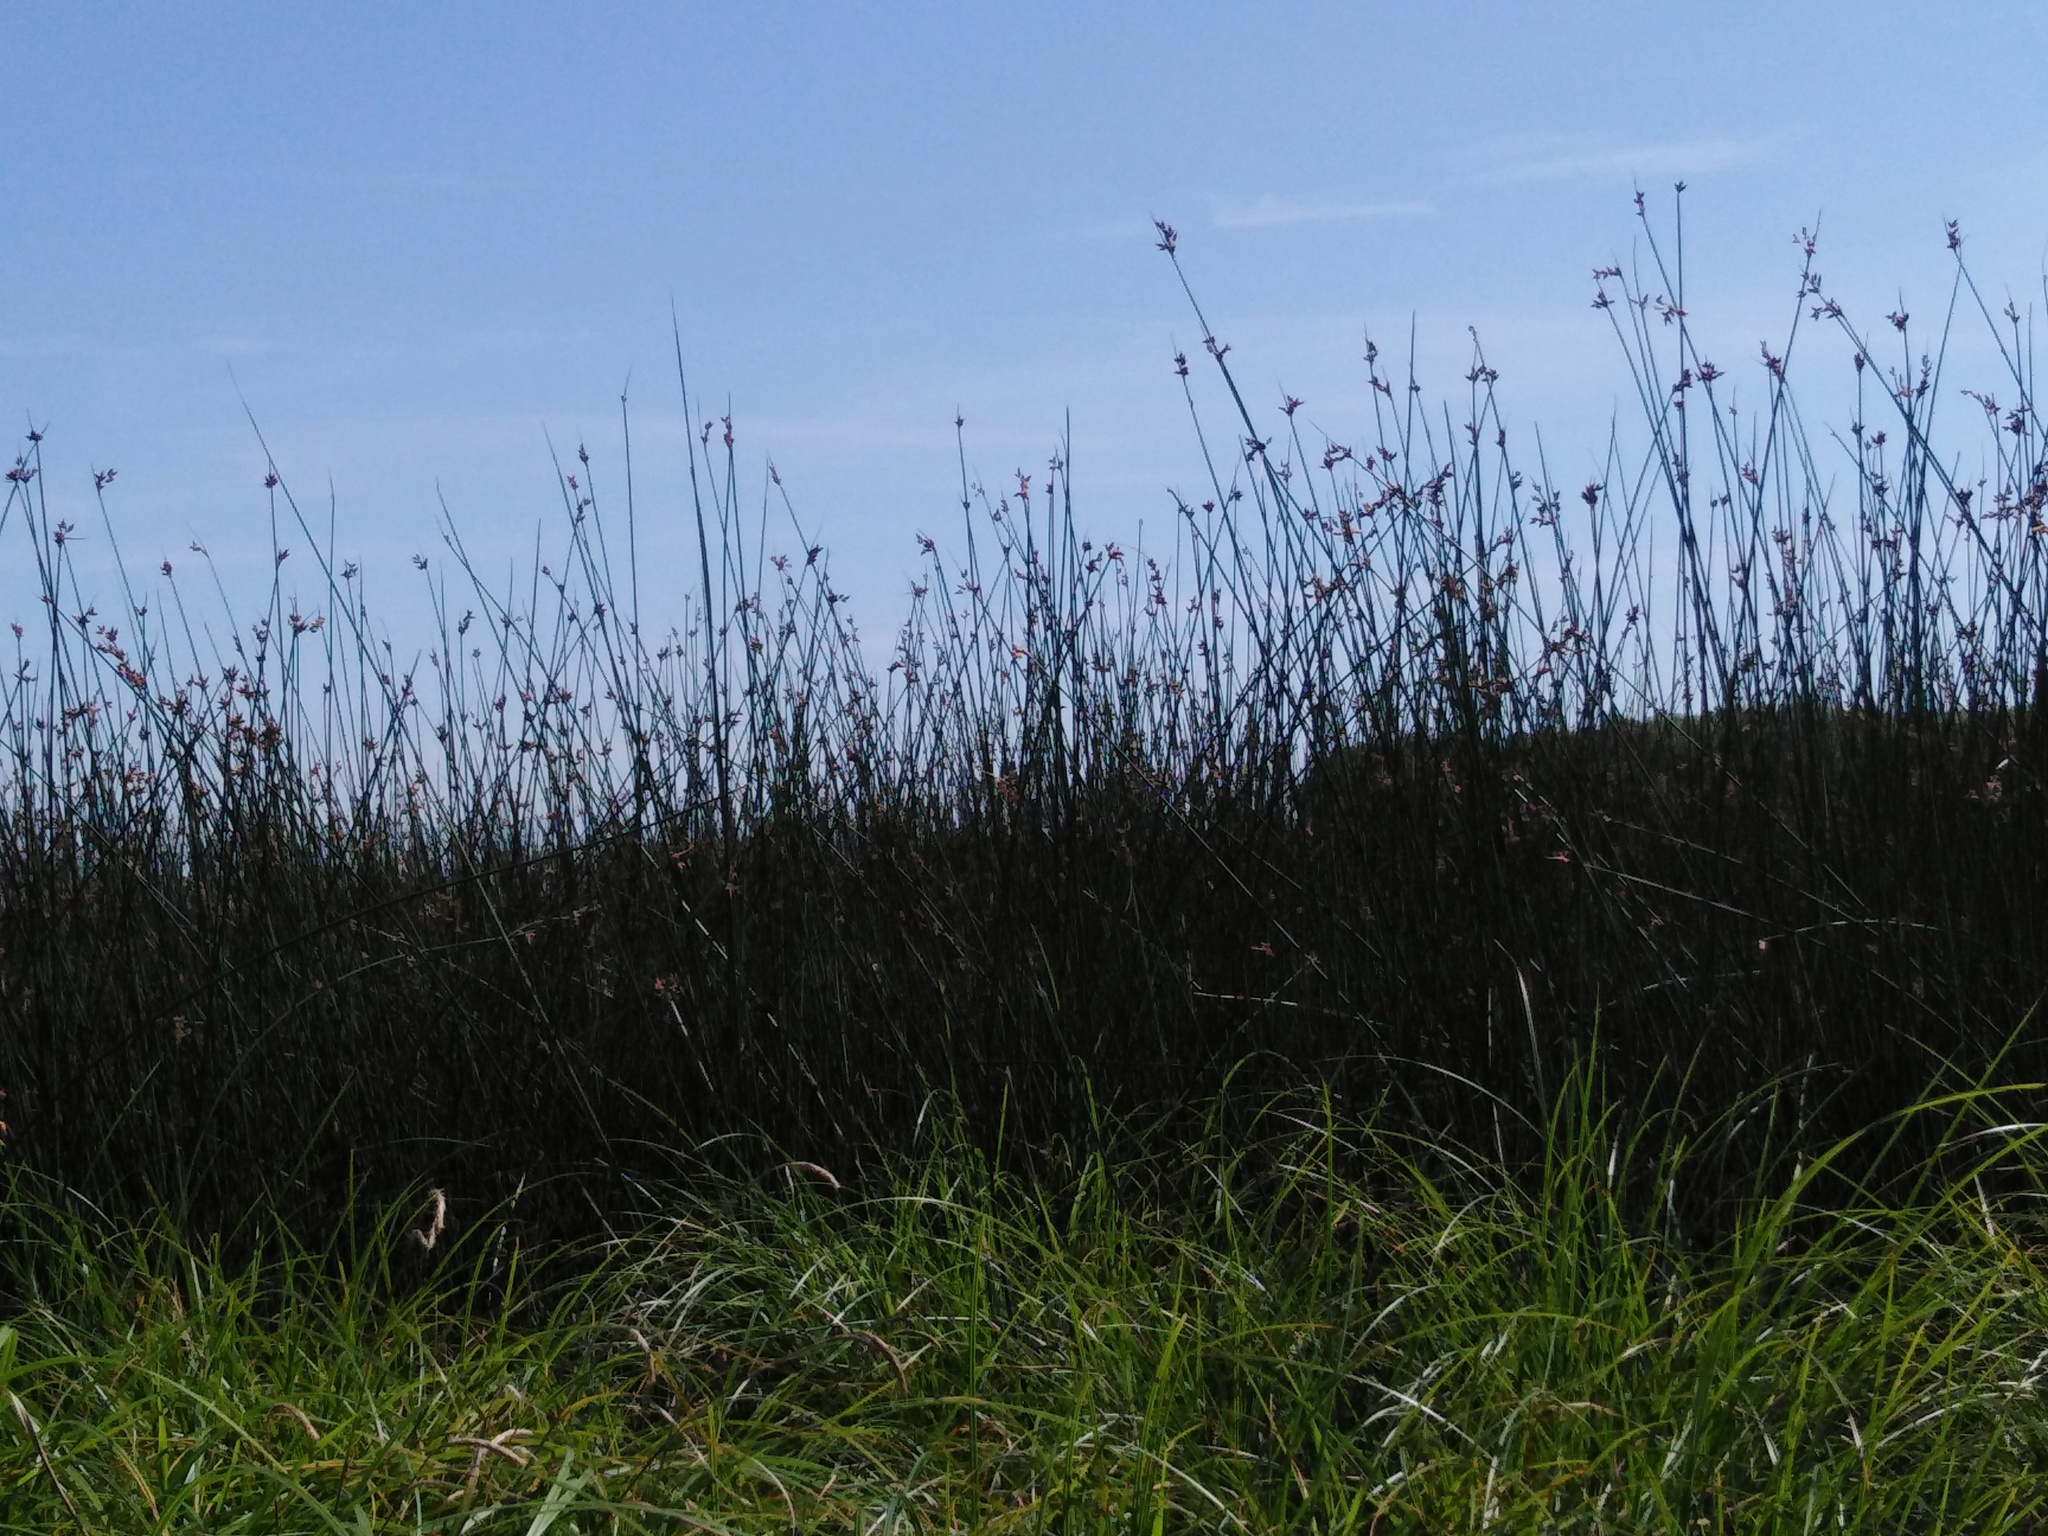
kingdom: Plantae
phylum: Tracheophyta
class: Liliopsida
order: Poales
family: Cyperaceae
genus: Schoenoplectus
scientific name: Schoenoplectus lacustris
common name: Common club-rush
